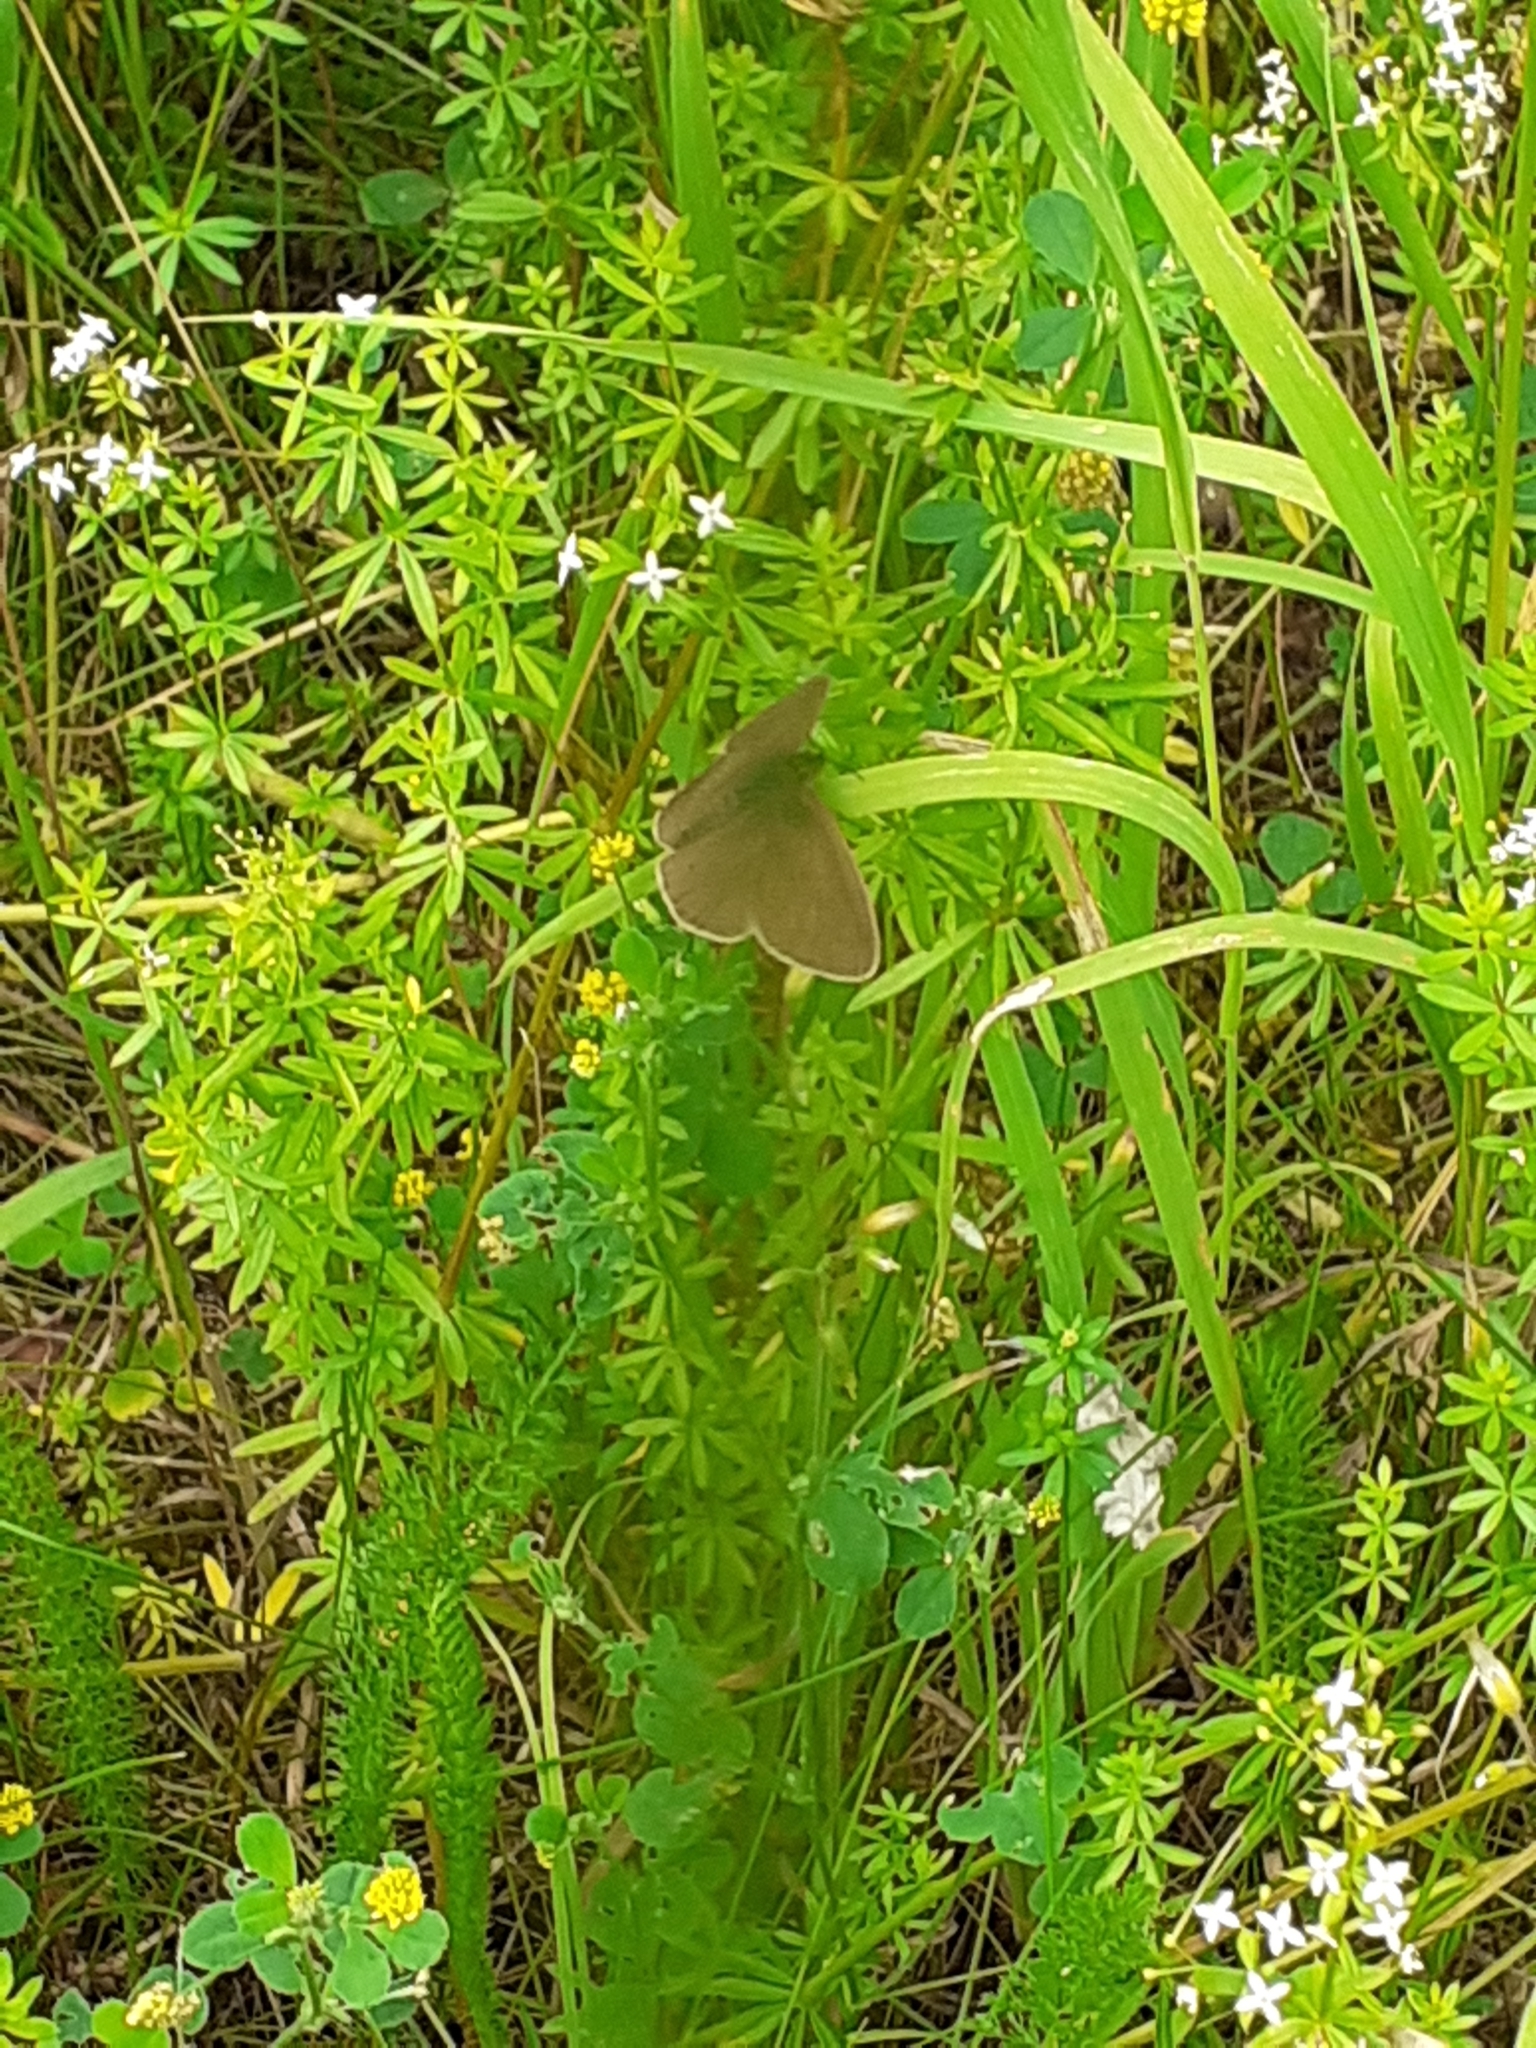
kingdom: Animalia
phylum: Arthropoda
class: Insecta
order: Lepidoptera
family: Nymphalidae
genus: Aphantopus
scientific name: Aphantopus hyperantus
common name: Ringlet
